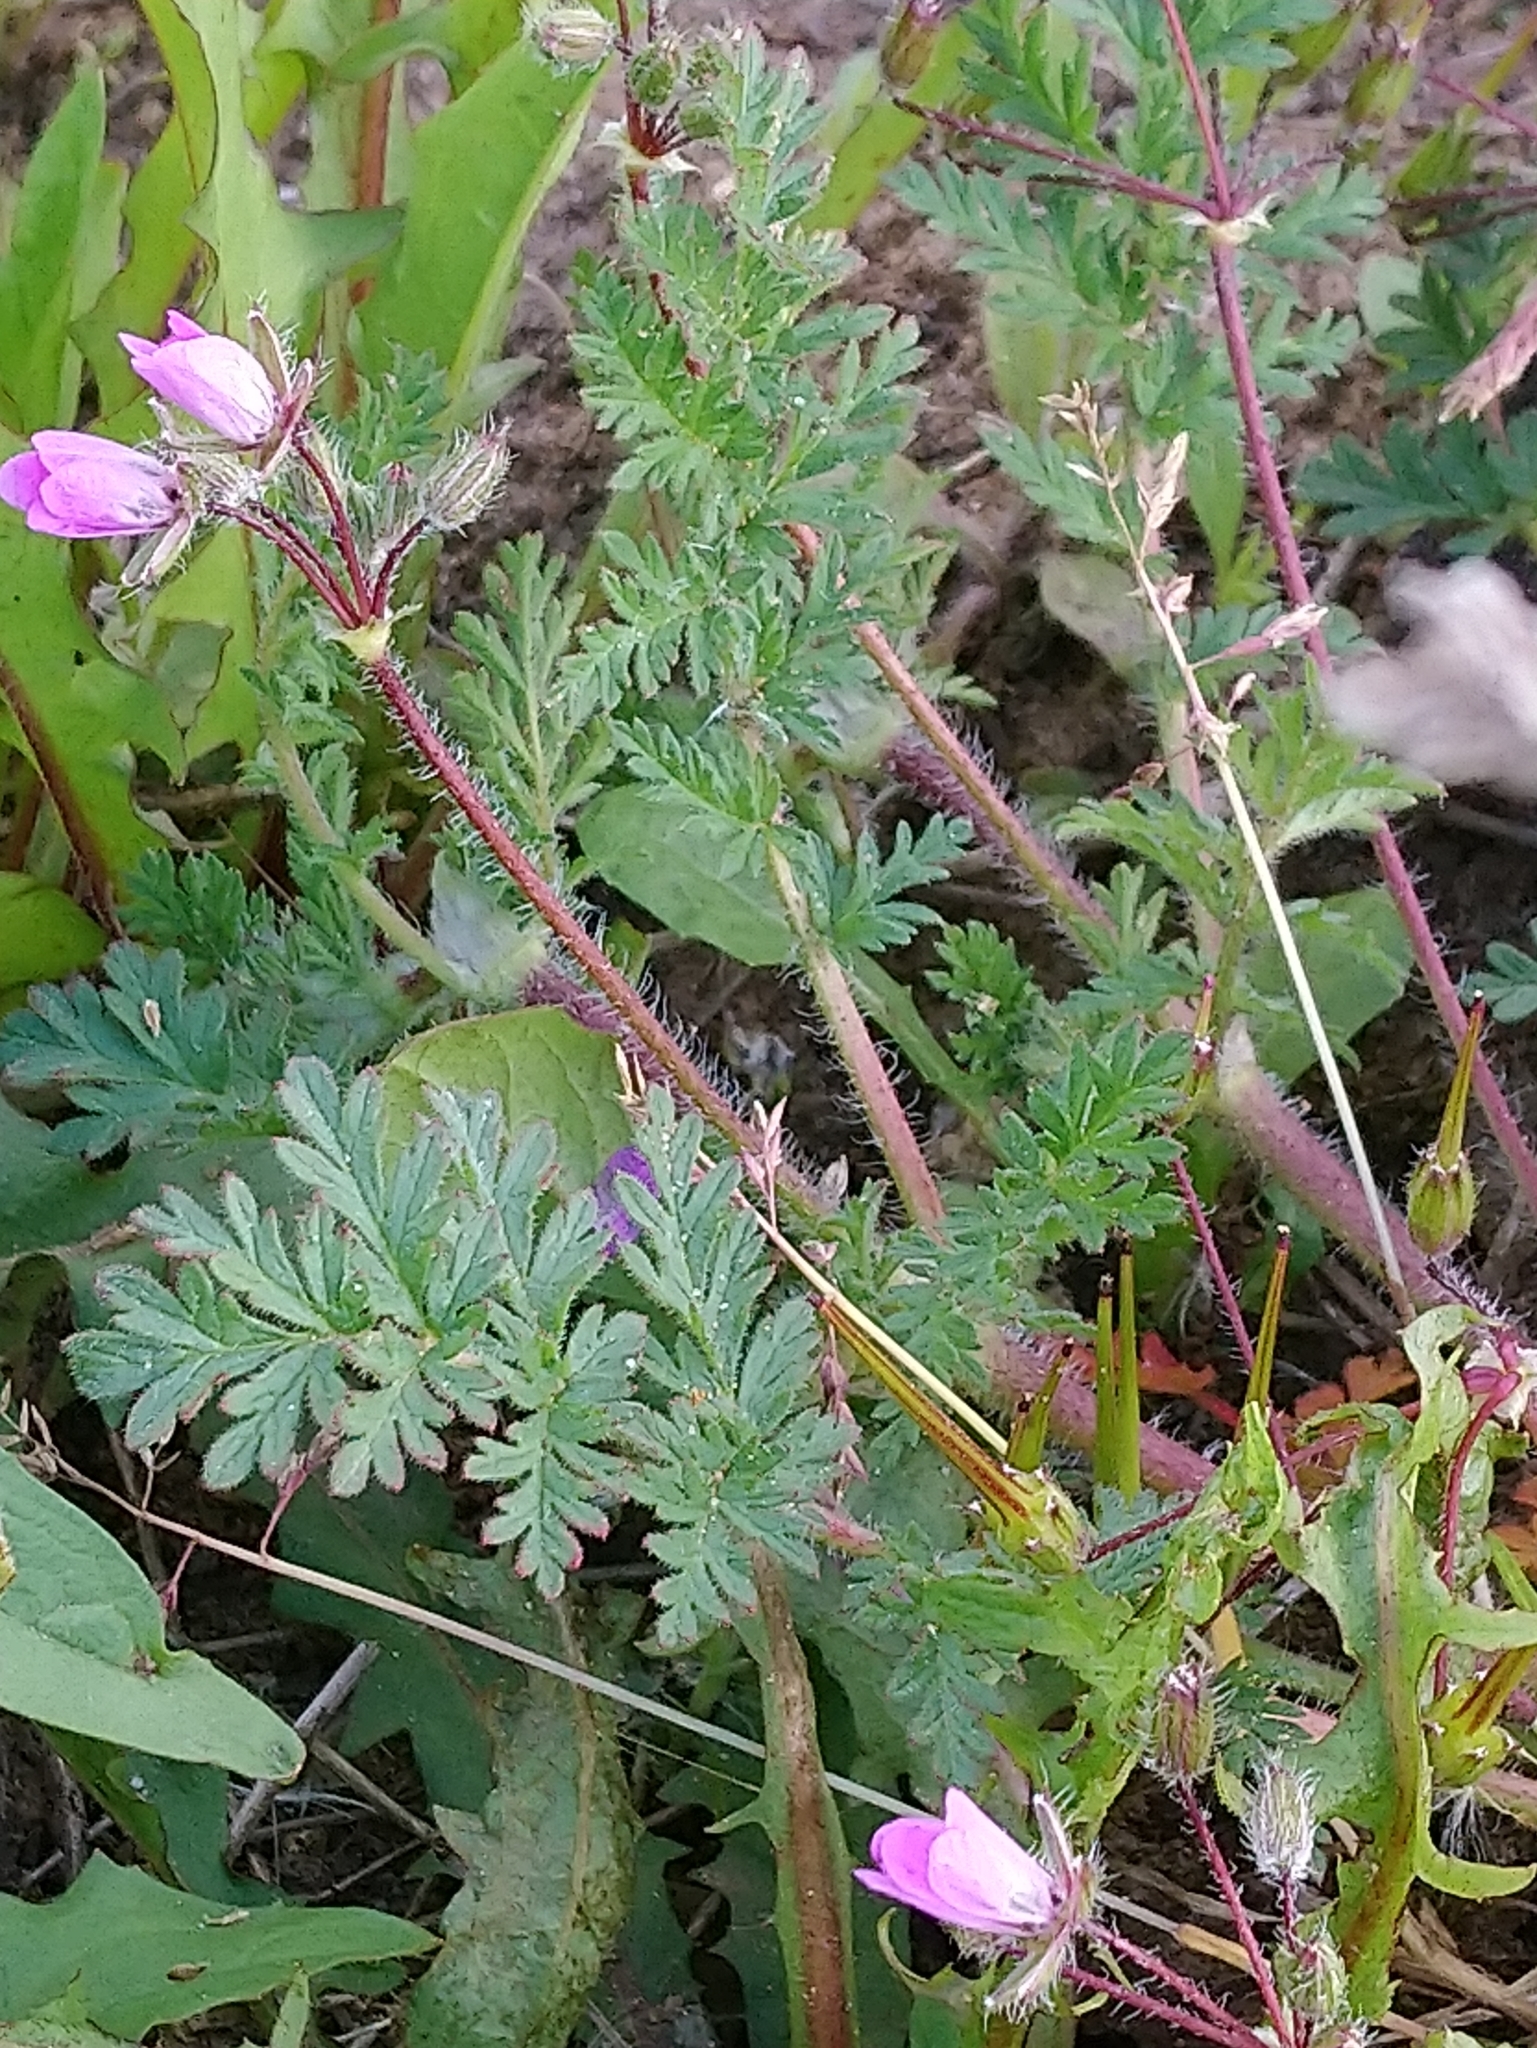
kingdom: Plantae
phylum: Tracheophyta
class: Magnoliopsida
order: Geraniales
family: Geraniaceae
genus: Erodium
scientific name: Erodium cicutarium
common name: Common stork's-bill
